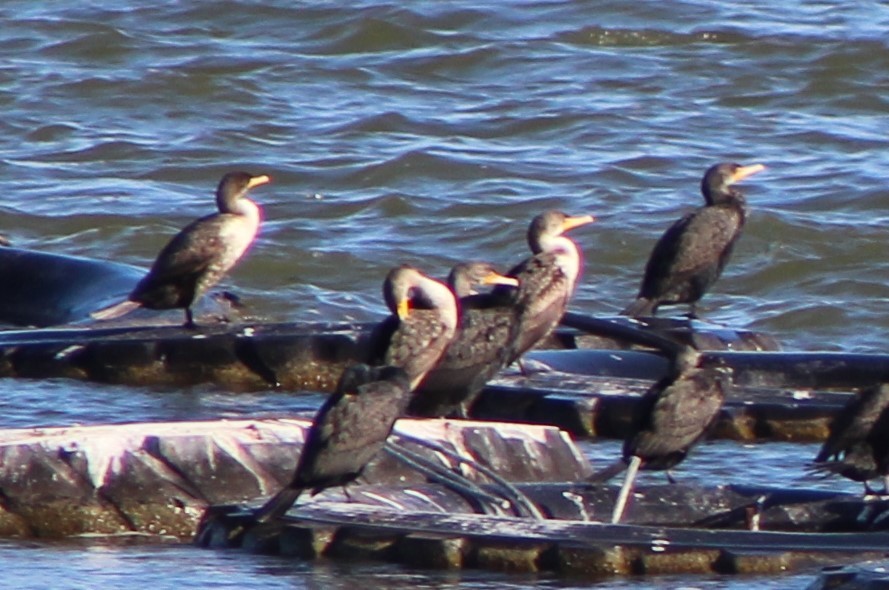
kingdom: Animalia
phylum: Chordata
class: Aves
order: Suliformes
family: Phalacrocoracidae
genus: Phalacrocorax
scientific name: Phalacrocorax auritus
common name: Double-crested cormorant
